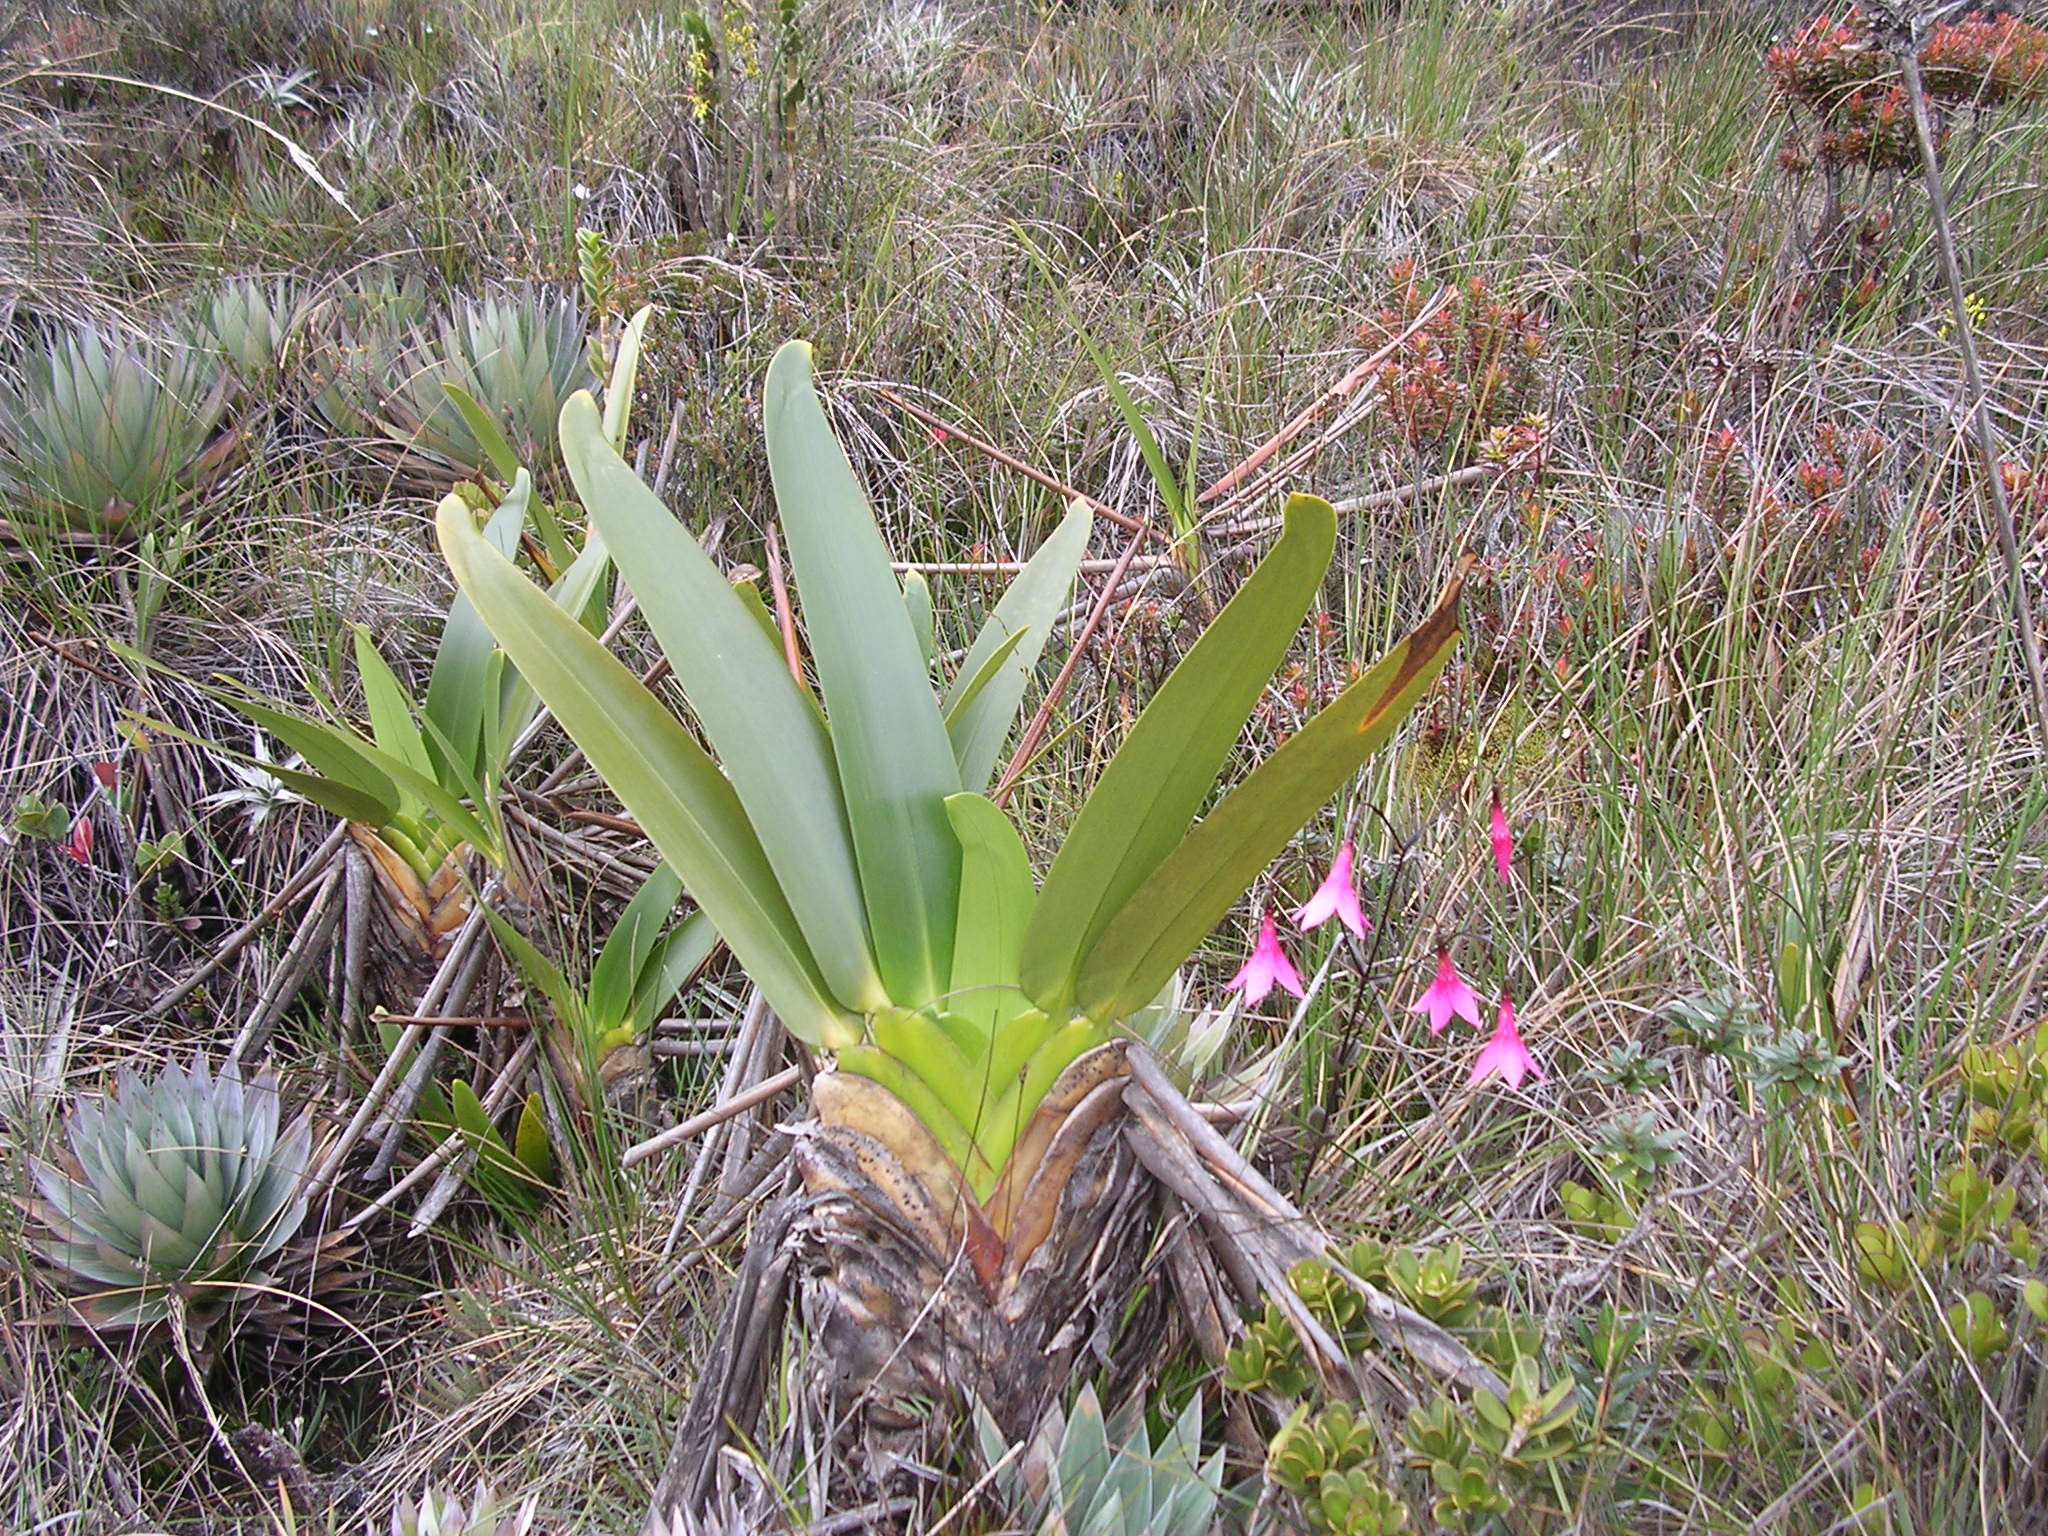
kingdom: Plantae
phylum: Tracheophyta
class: Liliopsida
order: Poales
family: Rapateaceae
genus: Stegolepis
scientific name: Stegolepis guianensis
